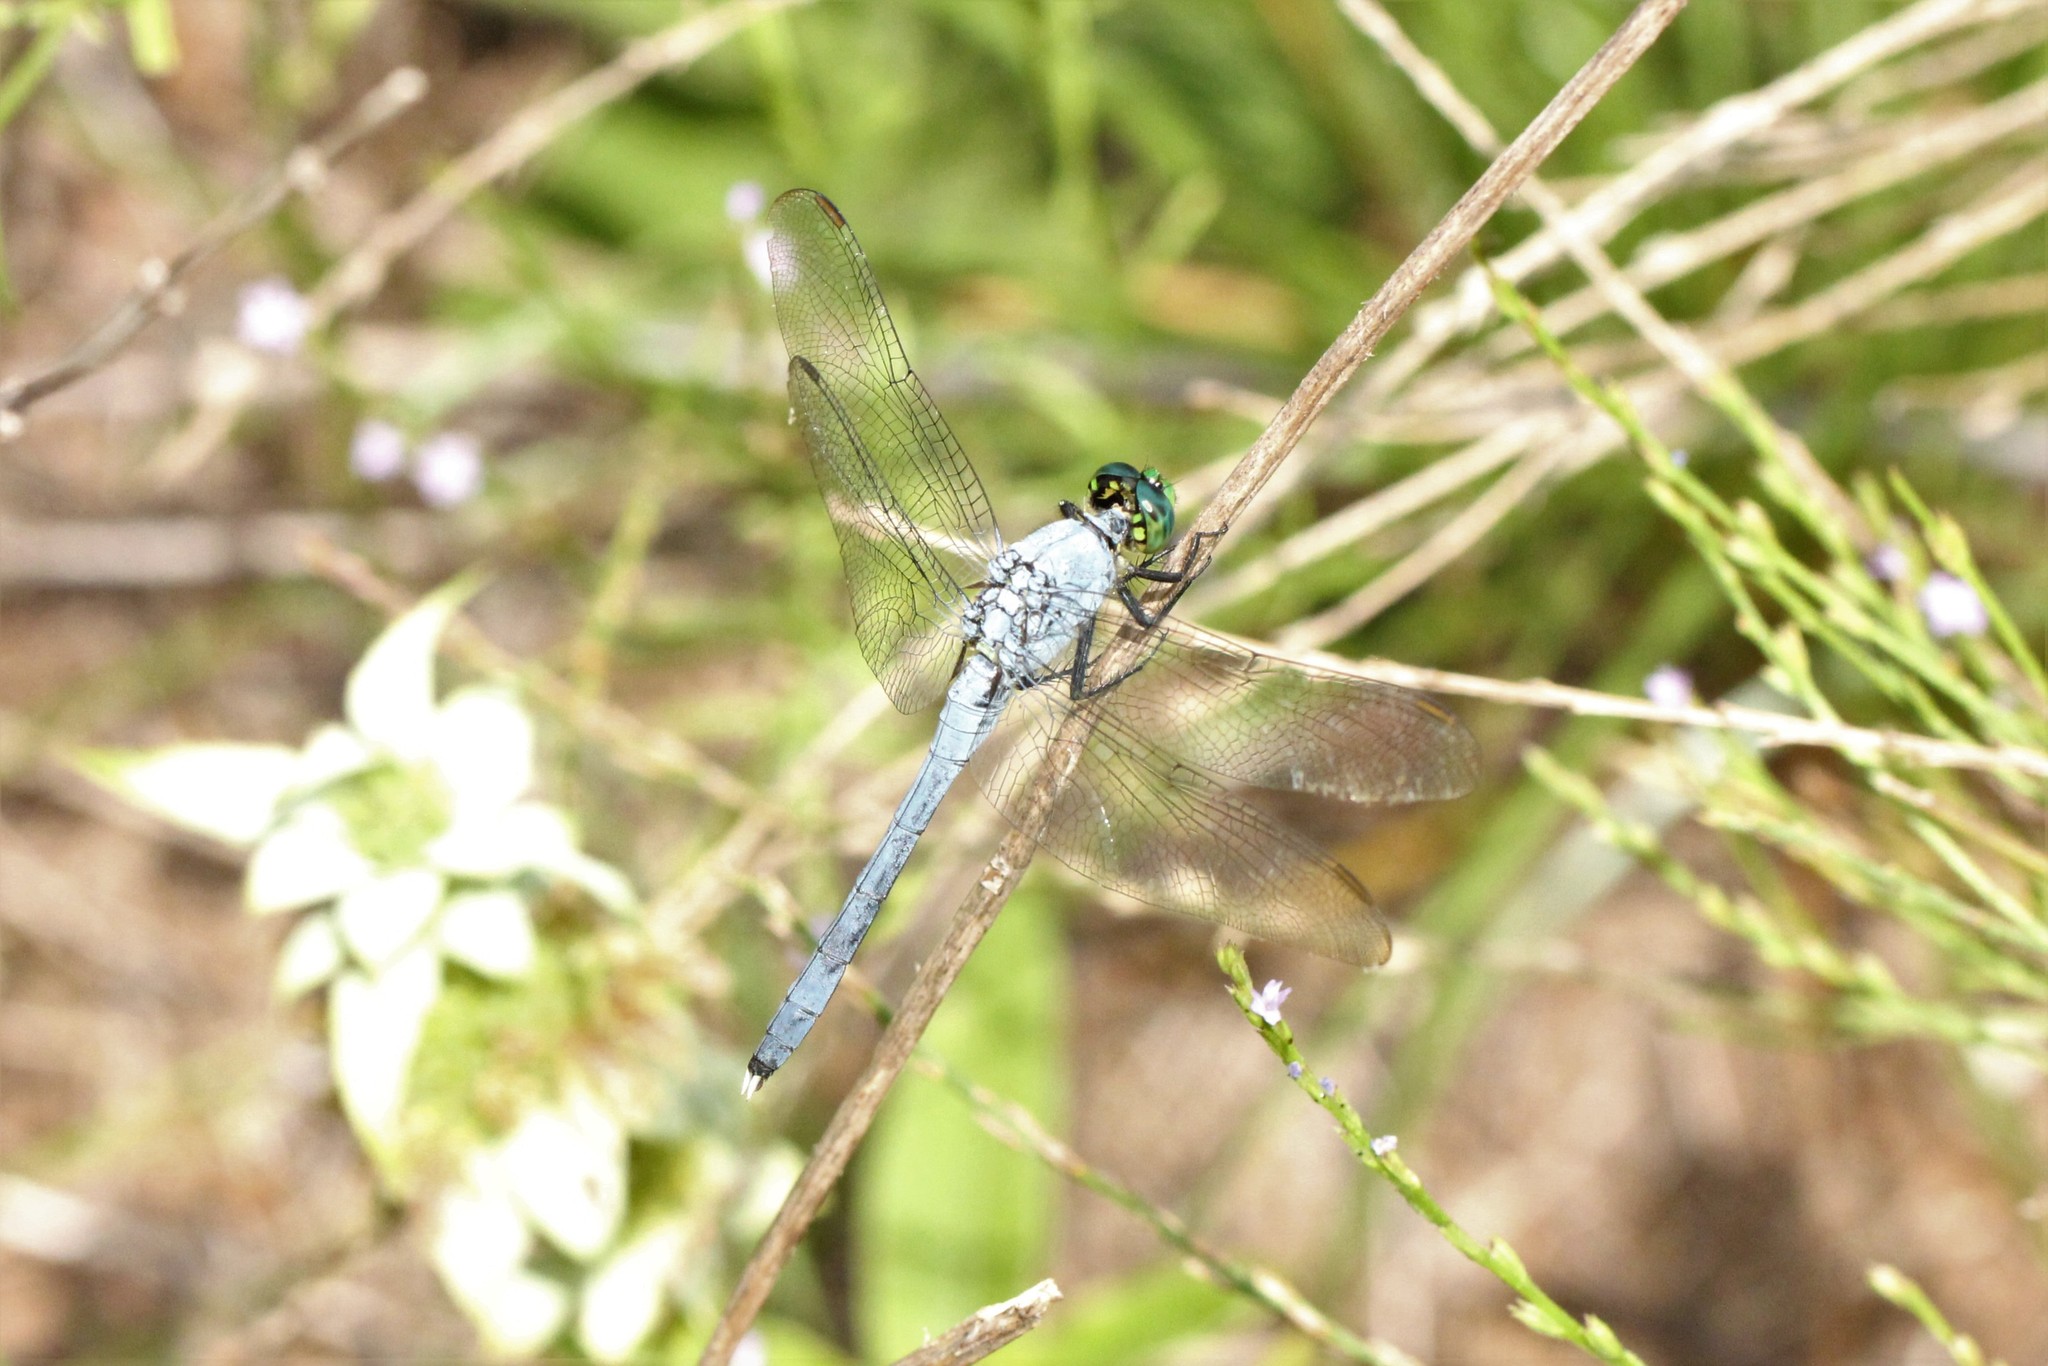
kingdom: Animalia
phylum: Arthropoda
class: Insecta
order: Odonata
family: Libellulidae
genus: Erythemis
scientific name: Erythemis simplicicollis
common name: Eastern pondhawk
